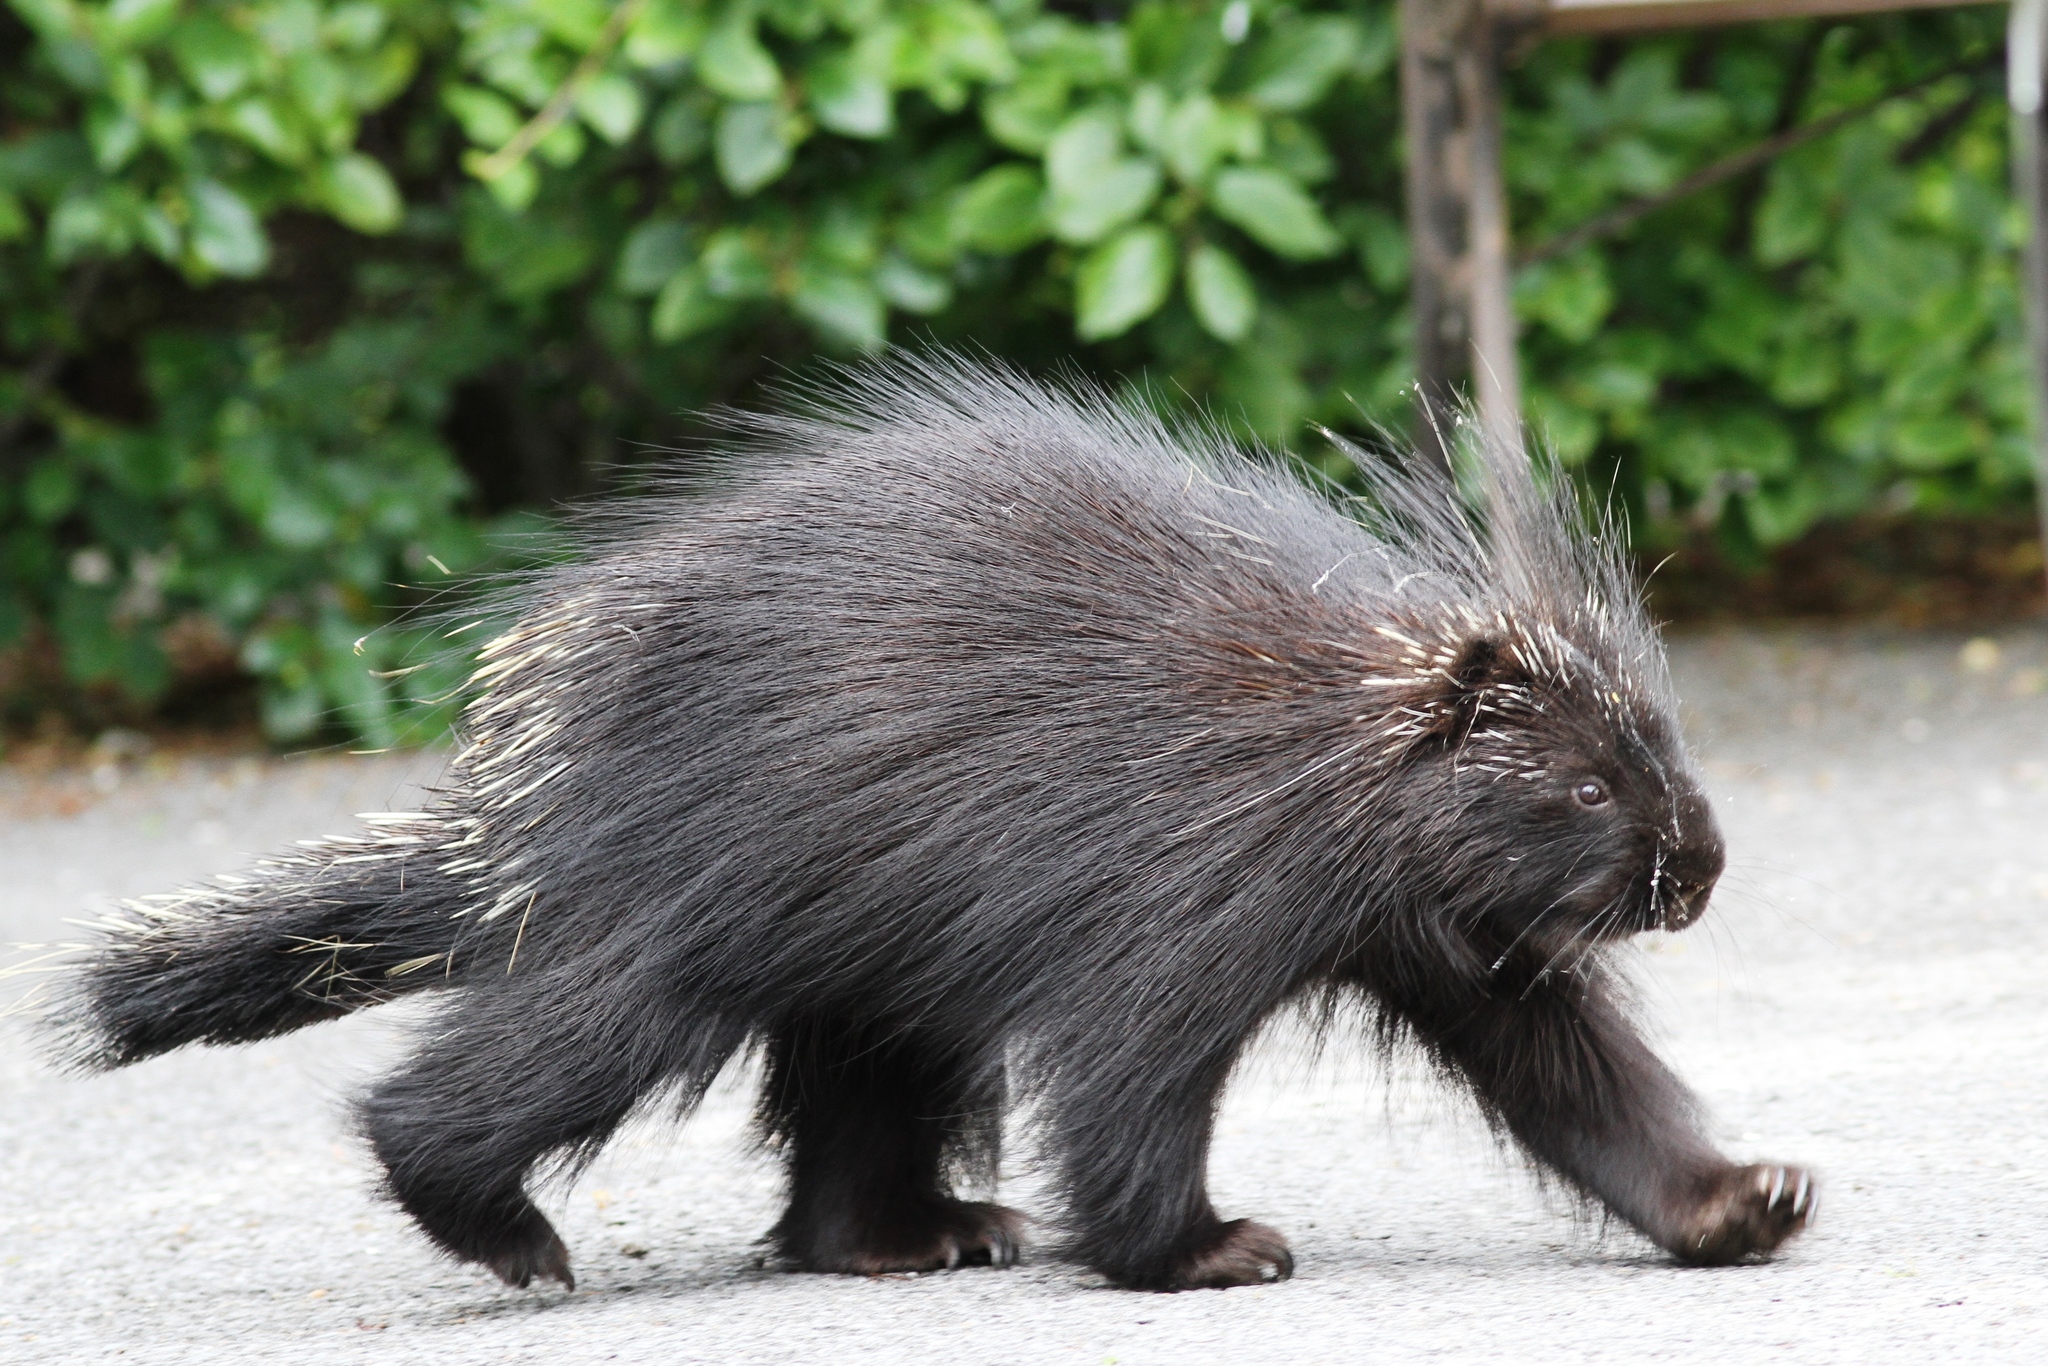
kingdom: Animalia
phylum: Chordata
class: Mammalia
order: Rodentia
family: Erethizontidae
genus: Erethizon
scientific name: Erethizon dorsatus
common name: North american porcupine
